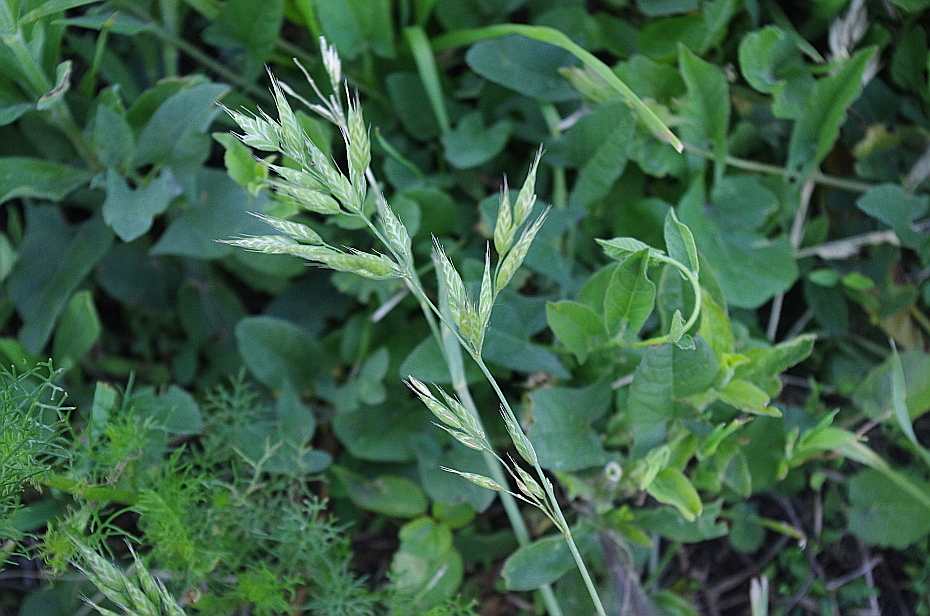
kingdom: Plantae
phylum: Tracheophyta
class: Liliopsida
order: Poales
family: Poaceae
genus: Bromus
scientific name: Bromus hordeaceus
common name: Soft brome
